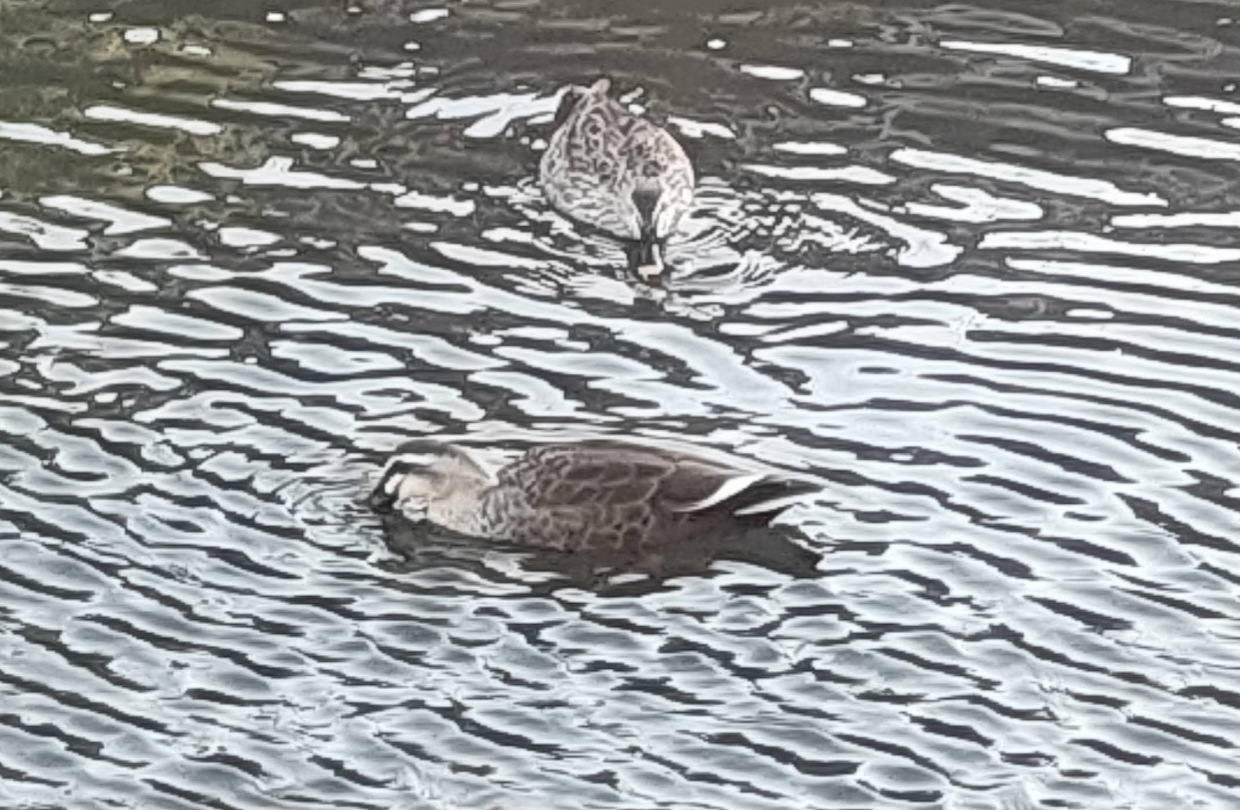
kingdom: Animalia
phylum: Chordata
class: Aves
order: Anseriformes
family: Anatidae
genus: Anas
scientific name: Anas zonorhyncha
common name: Eastern spot-billed duck
